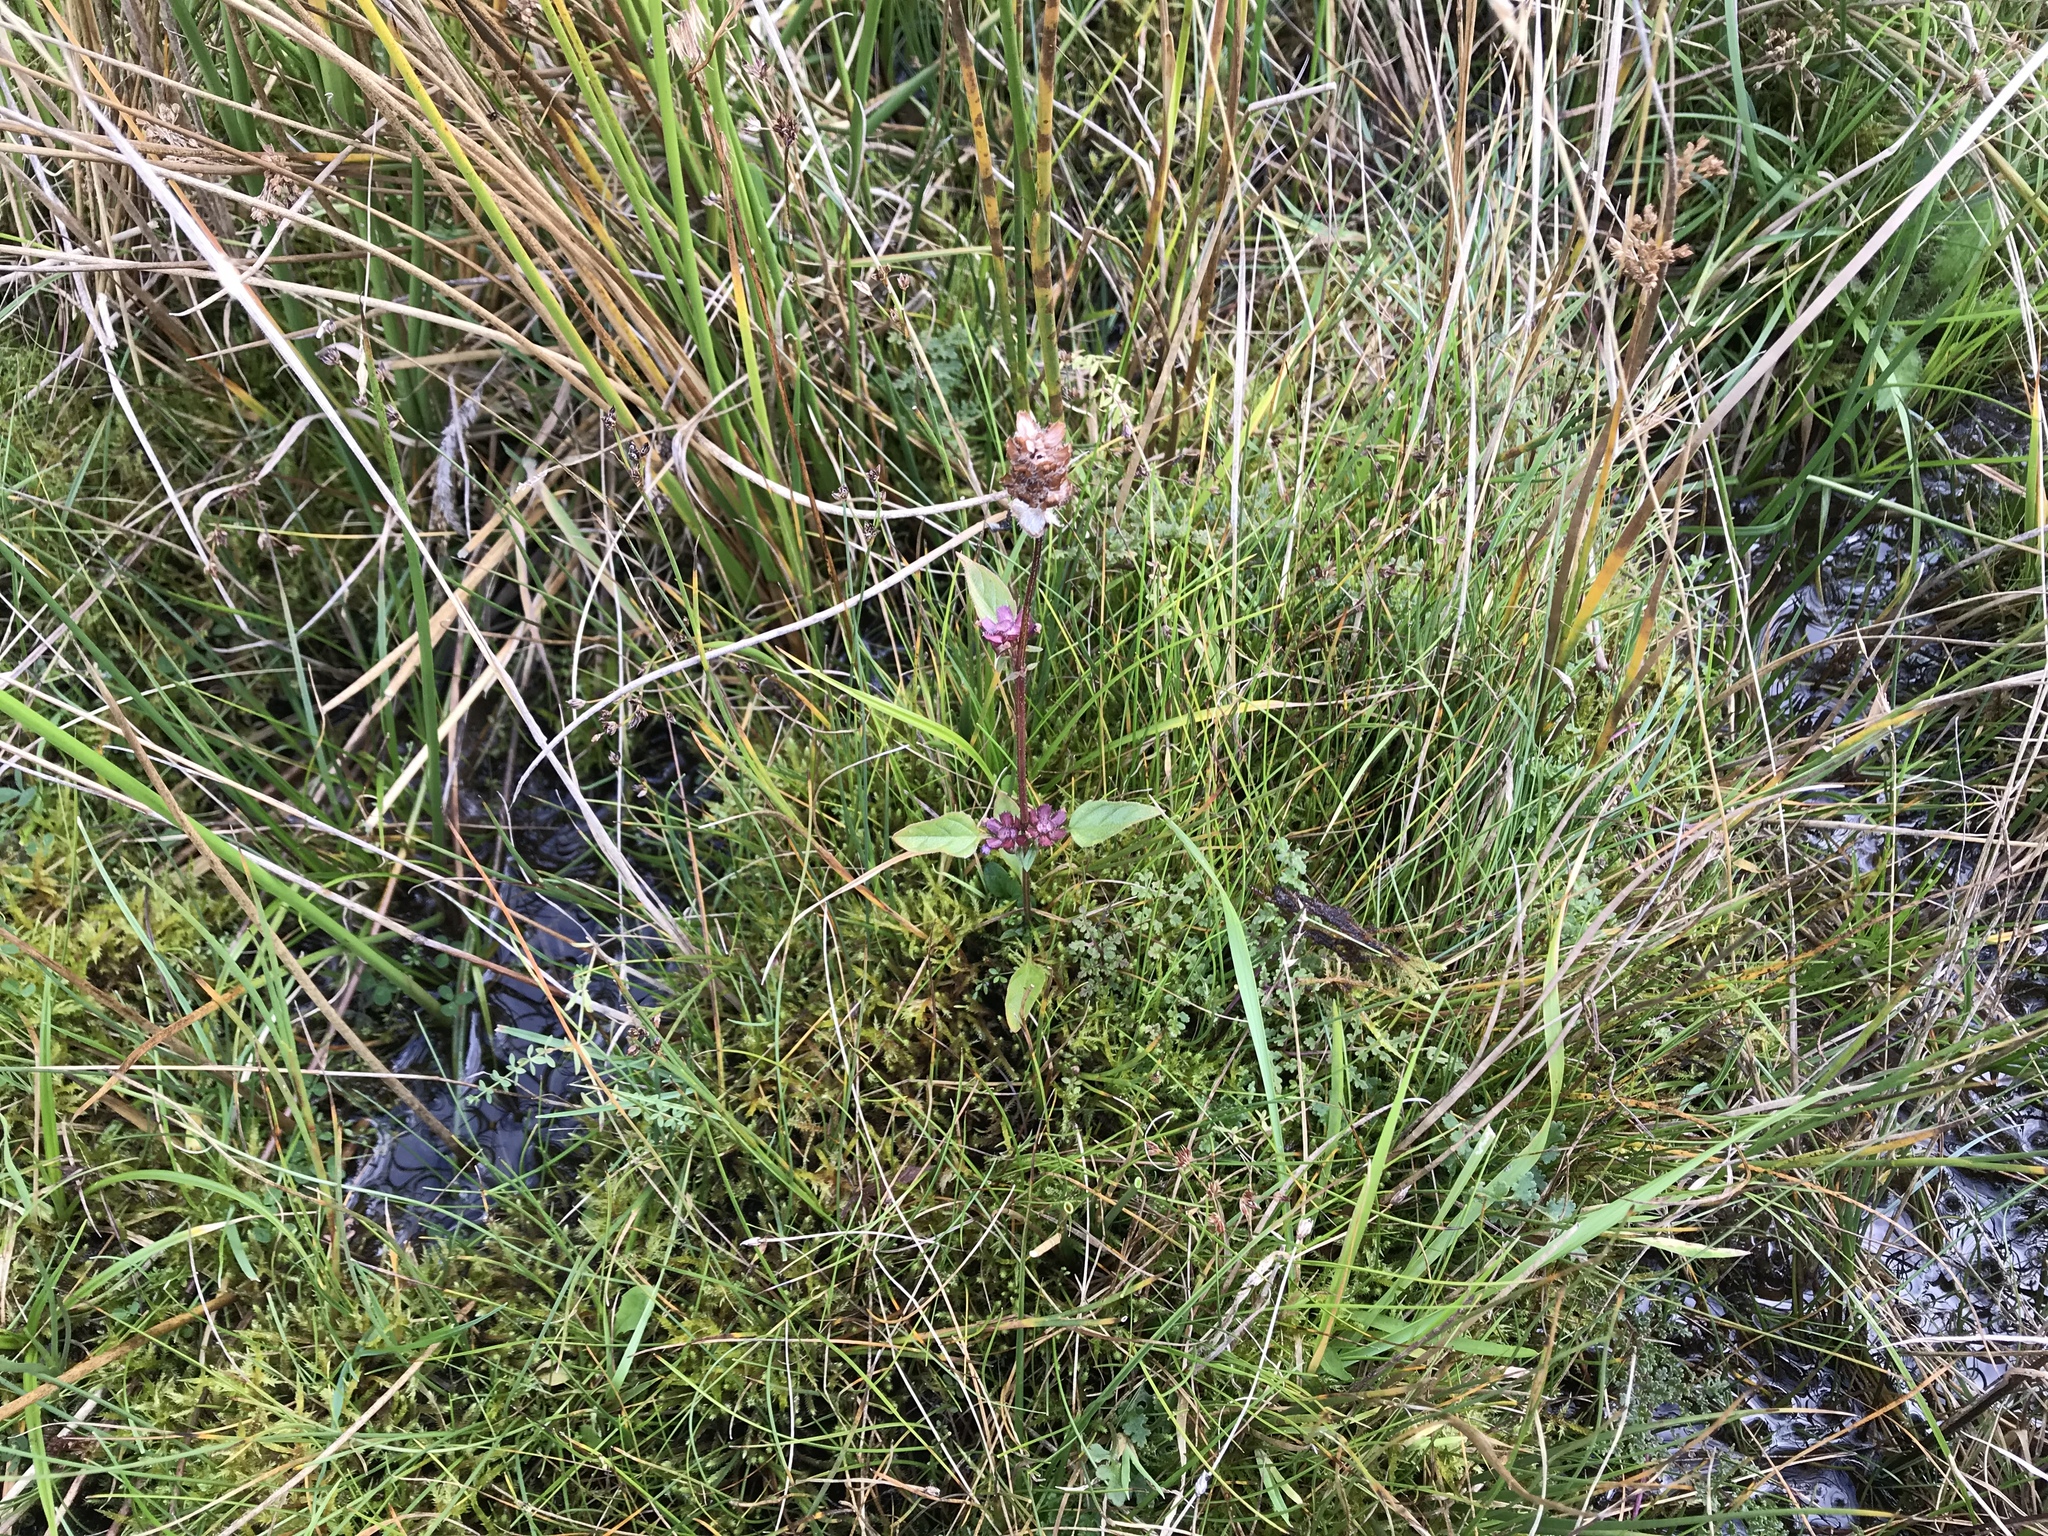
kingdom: Plantae
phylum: Tracheophyta
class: Magnoliopsida
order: Lamiales
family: Lamiaceae
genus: Prunella
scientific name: Prunella vulgaris
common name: Heal-all
